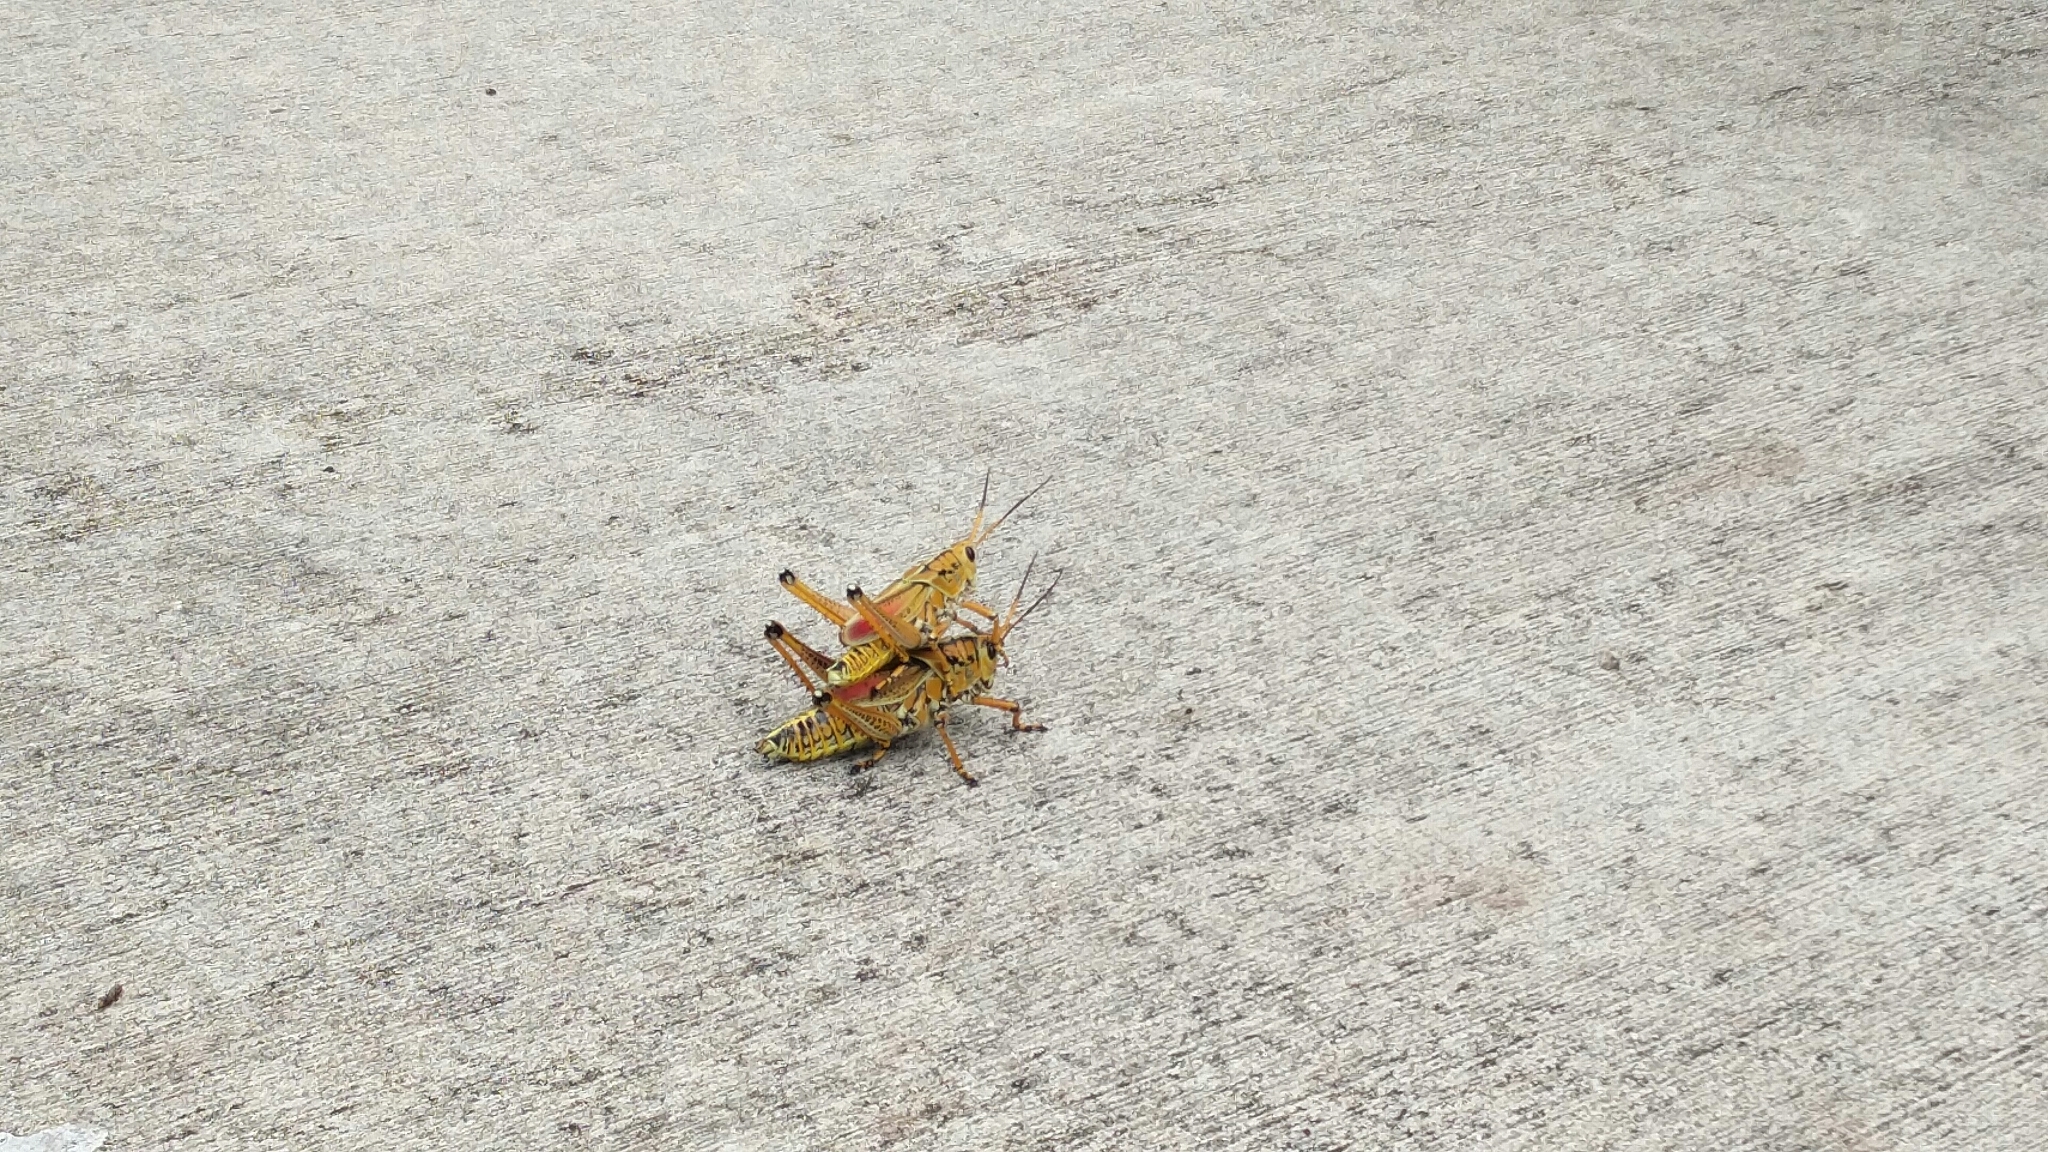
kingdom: Animalia
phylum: Arthropoda
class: Insecta
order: Orthoptera
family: Romaleidae
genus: Romalea
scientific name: Romalea microptera
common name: Eastern lubber grasshopper
